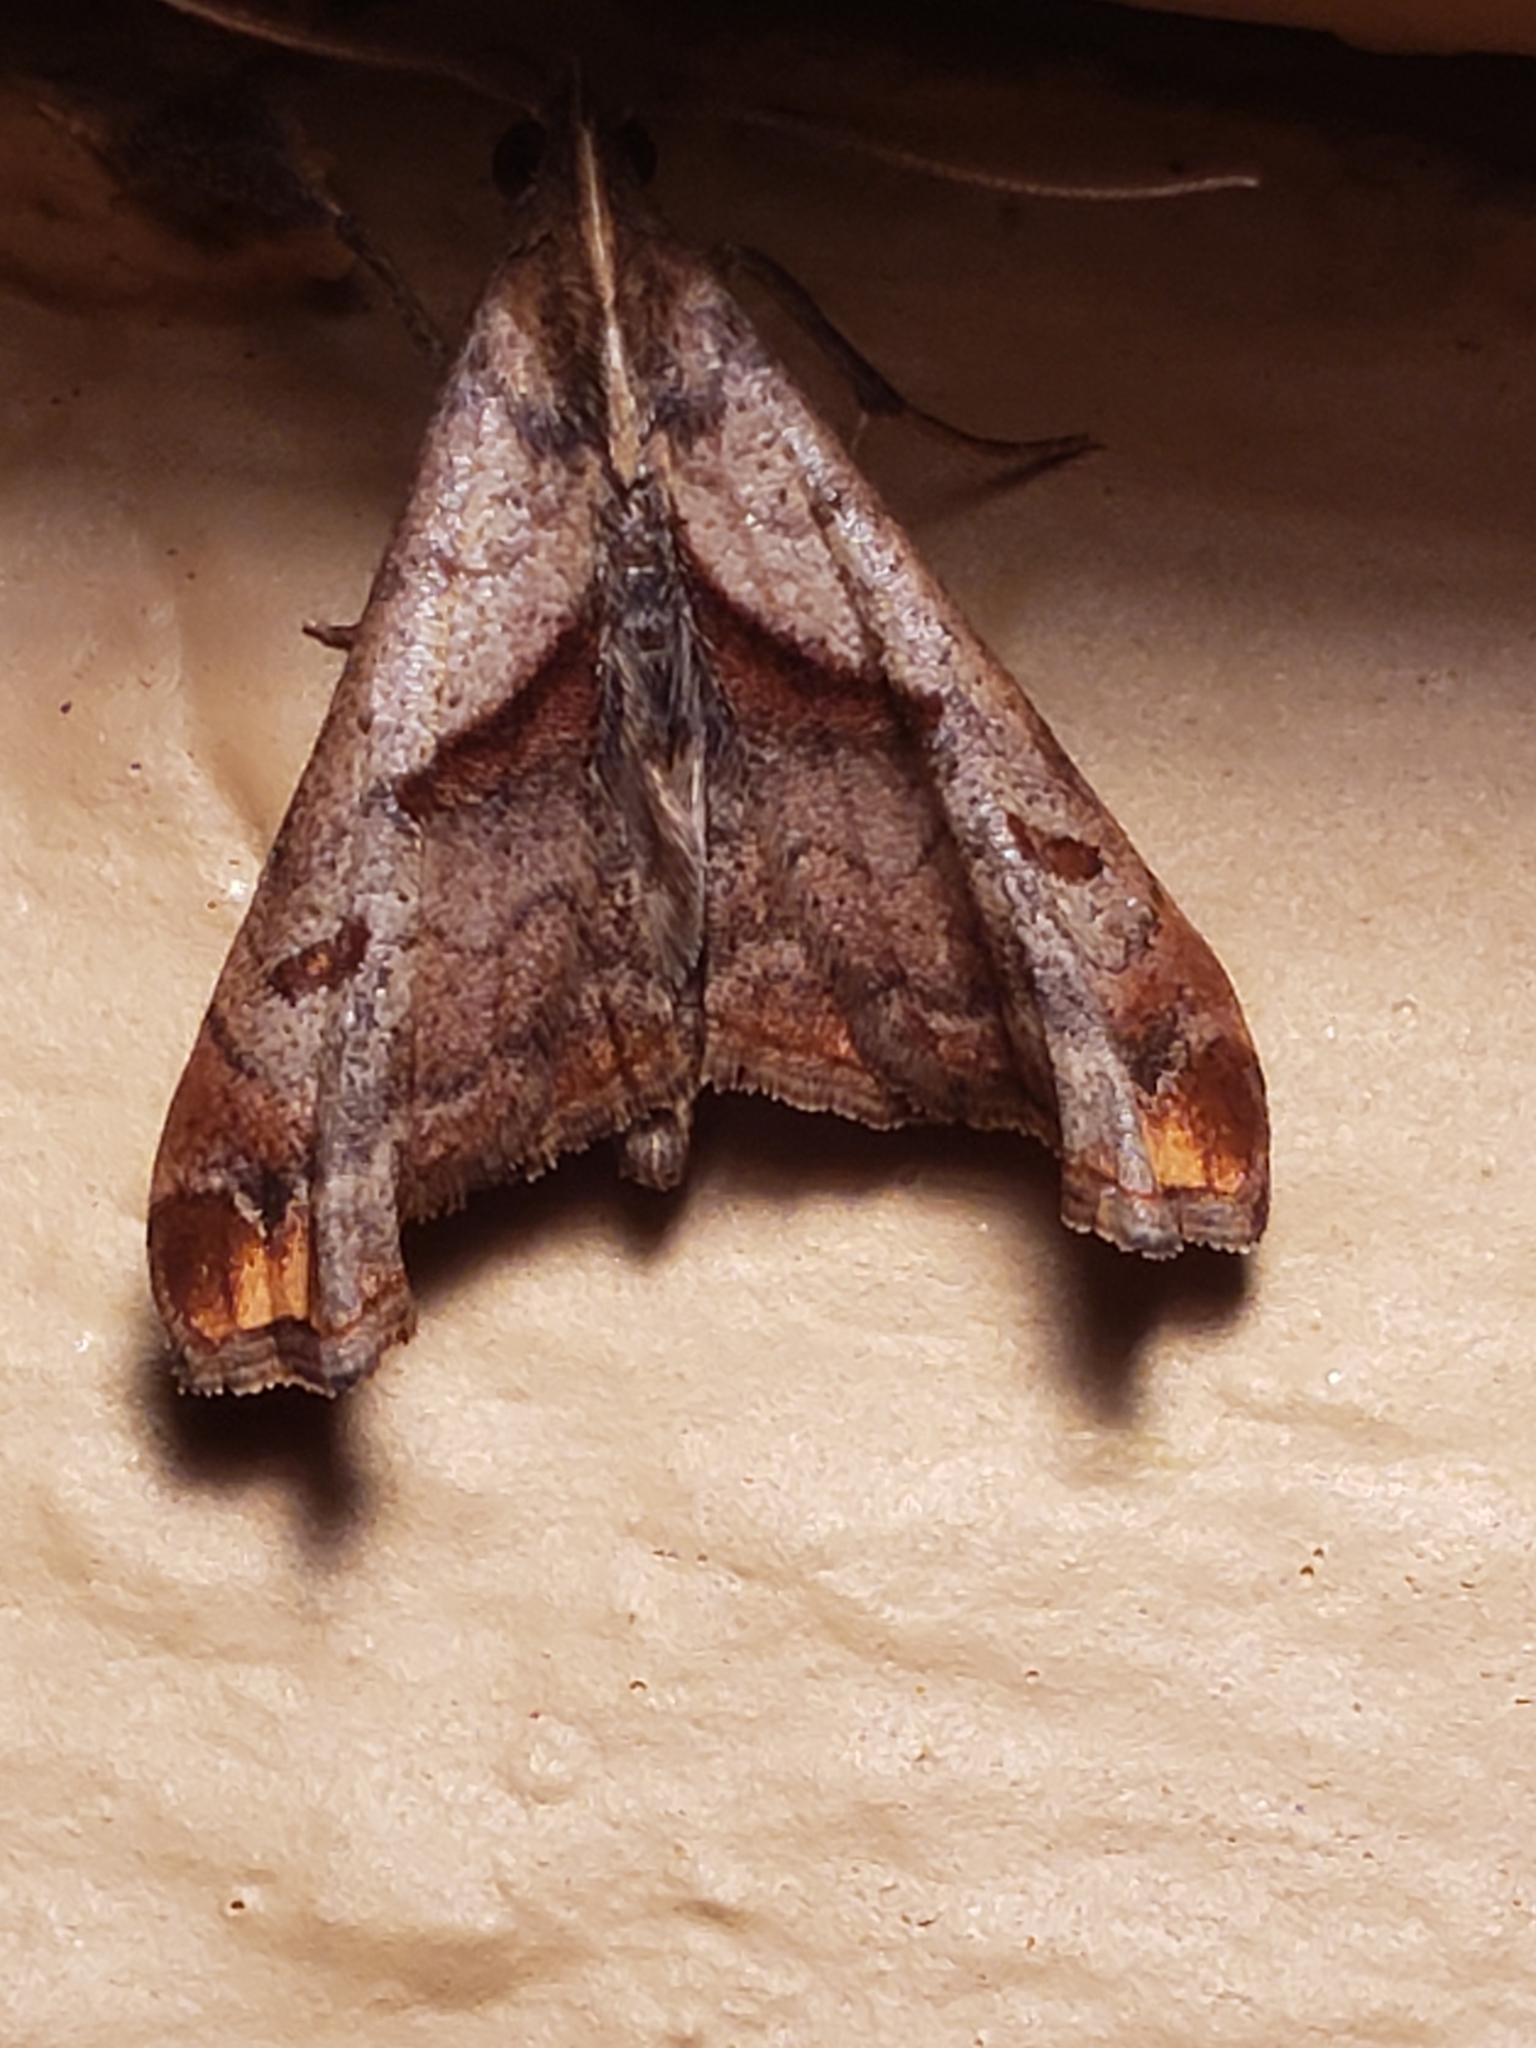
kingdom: Animalia
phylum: Arthropoda
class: Insecta
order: Lepidoptera
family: Erebidae
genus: Palthis
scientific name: Palthis angulalis
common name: Dark-spotted palthis moth
